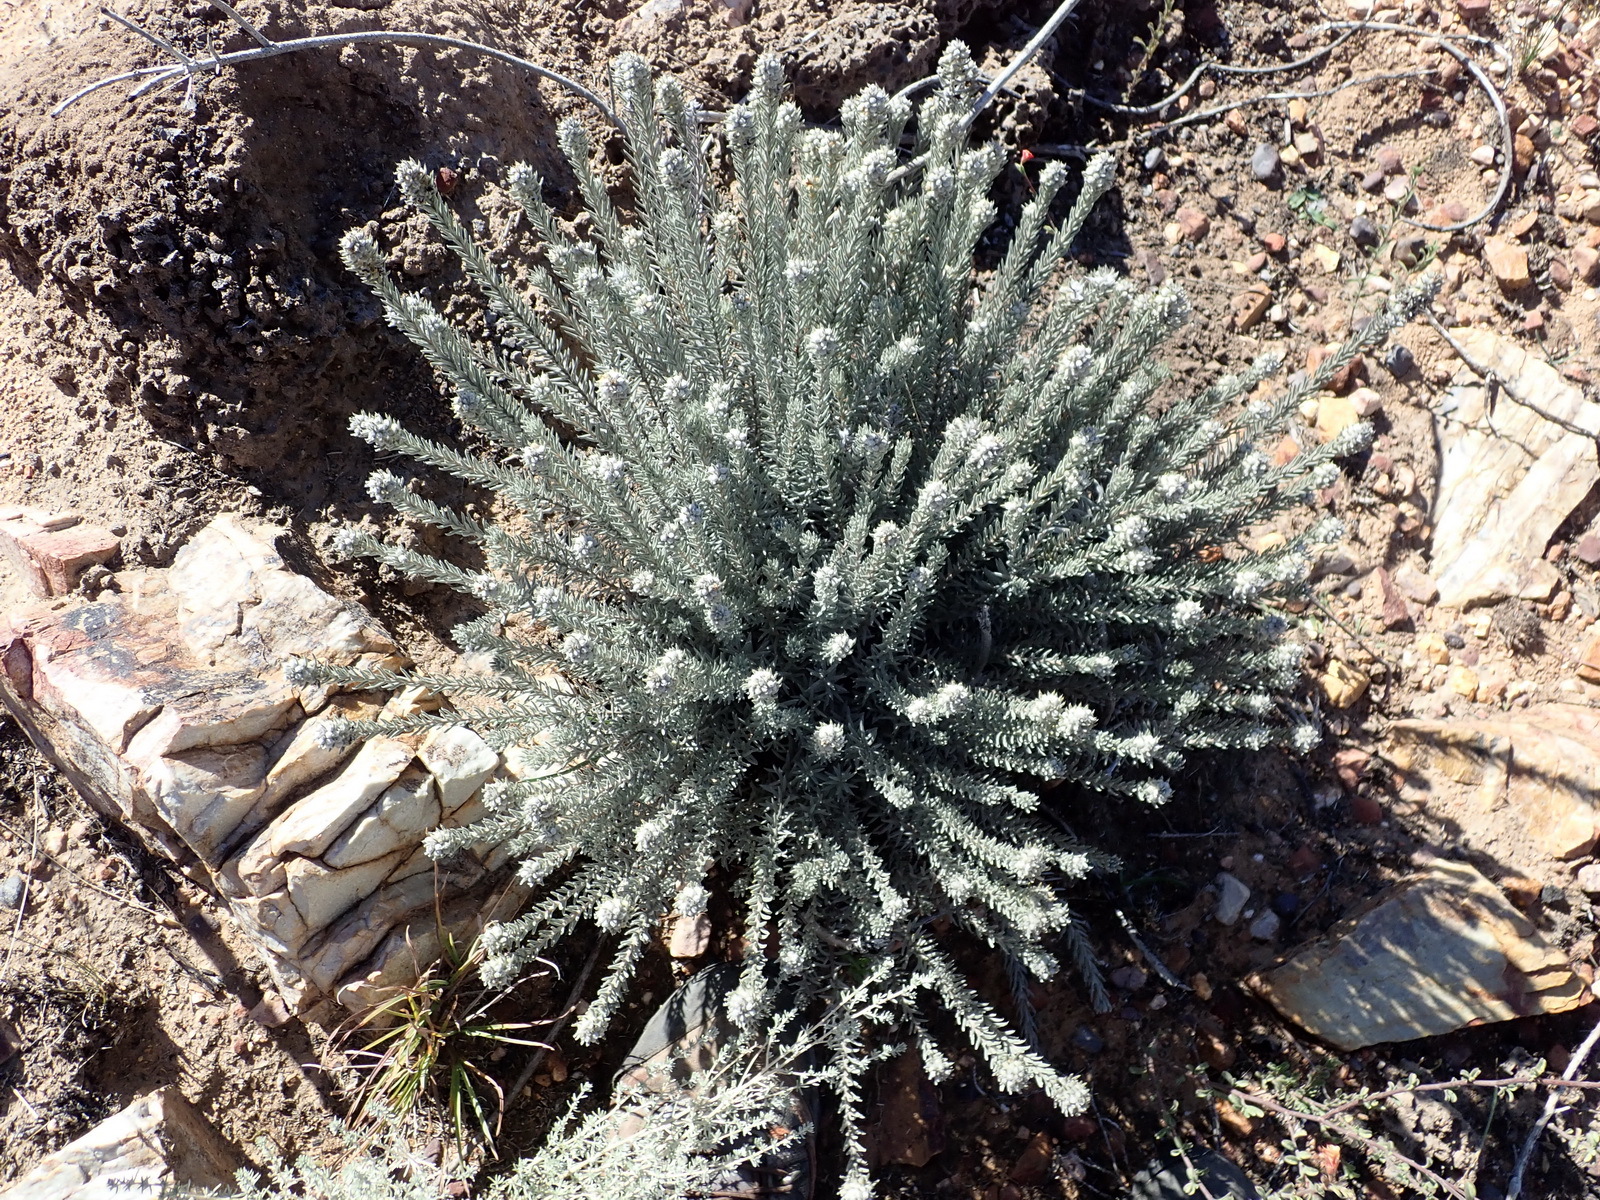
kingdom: Plantae
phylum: Tracheophyta
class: Magnoliopsida
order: Rosales
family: Rhamnaceae
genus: Phylica
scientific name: Phylica willdenowiana
